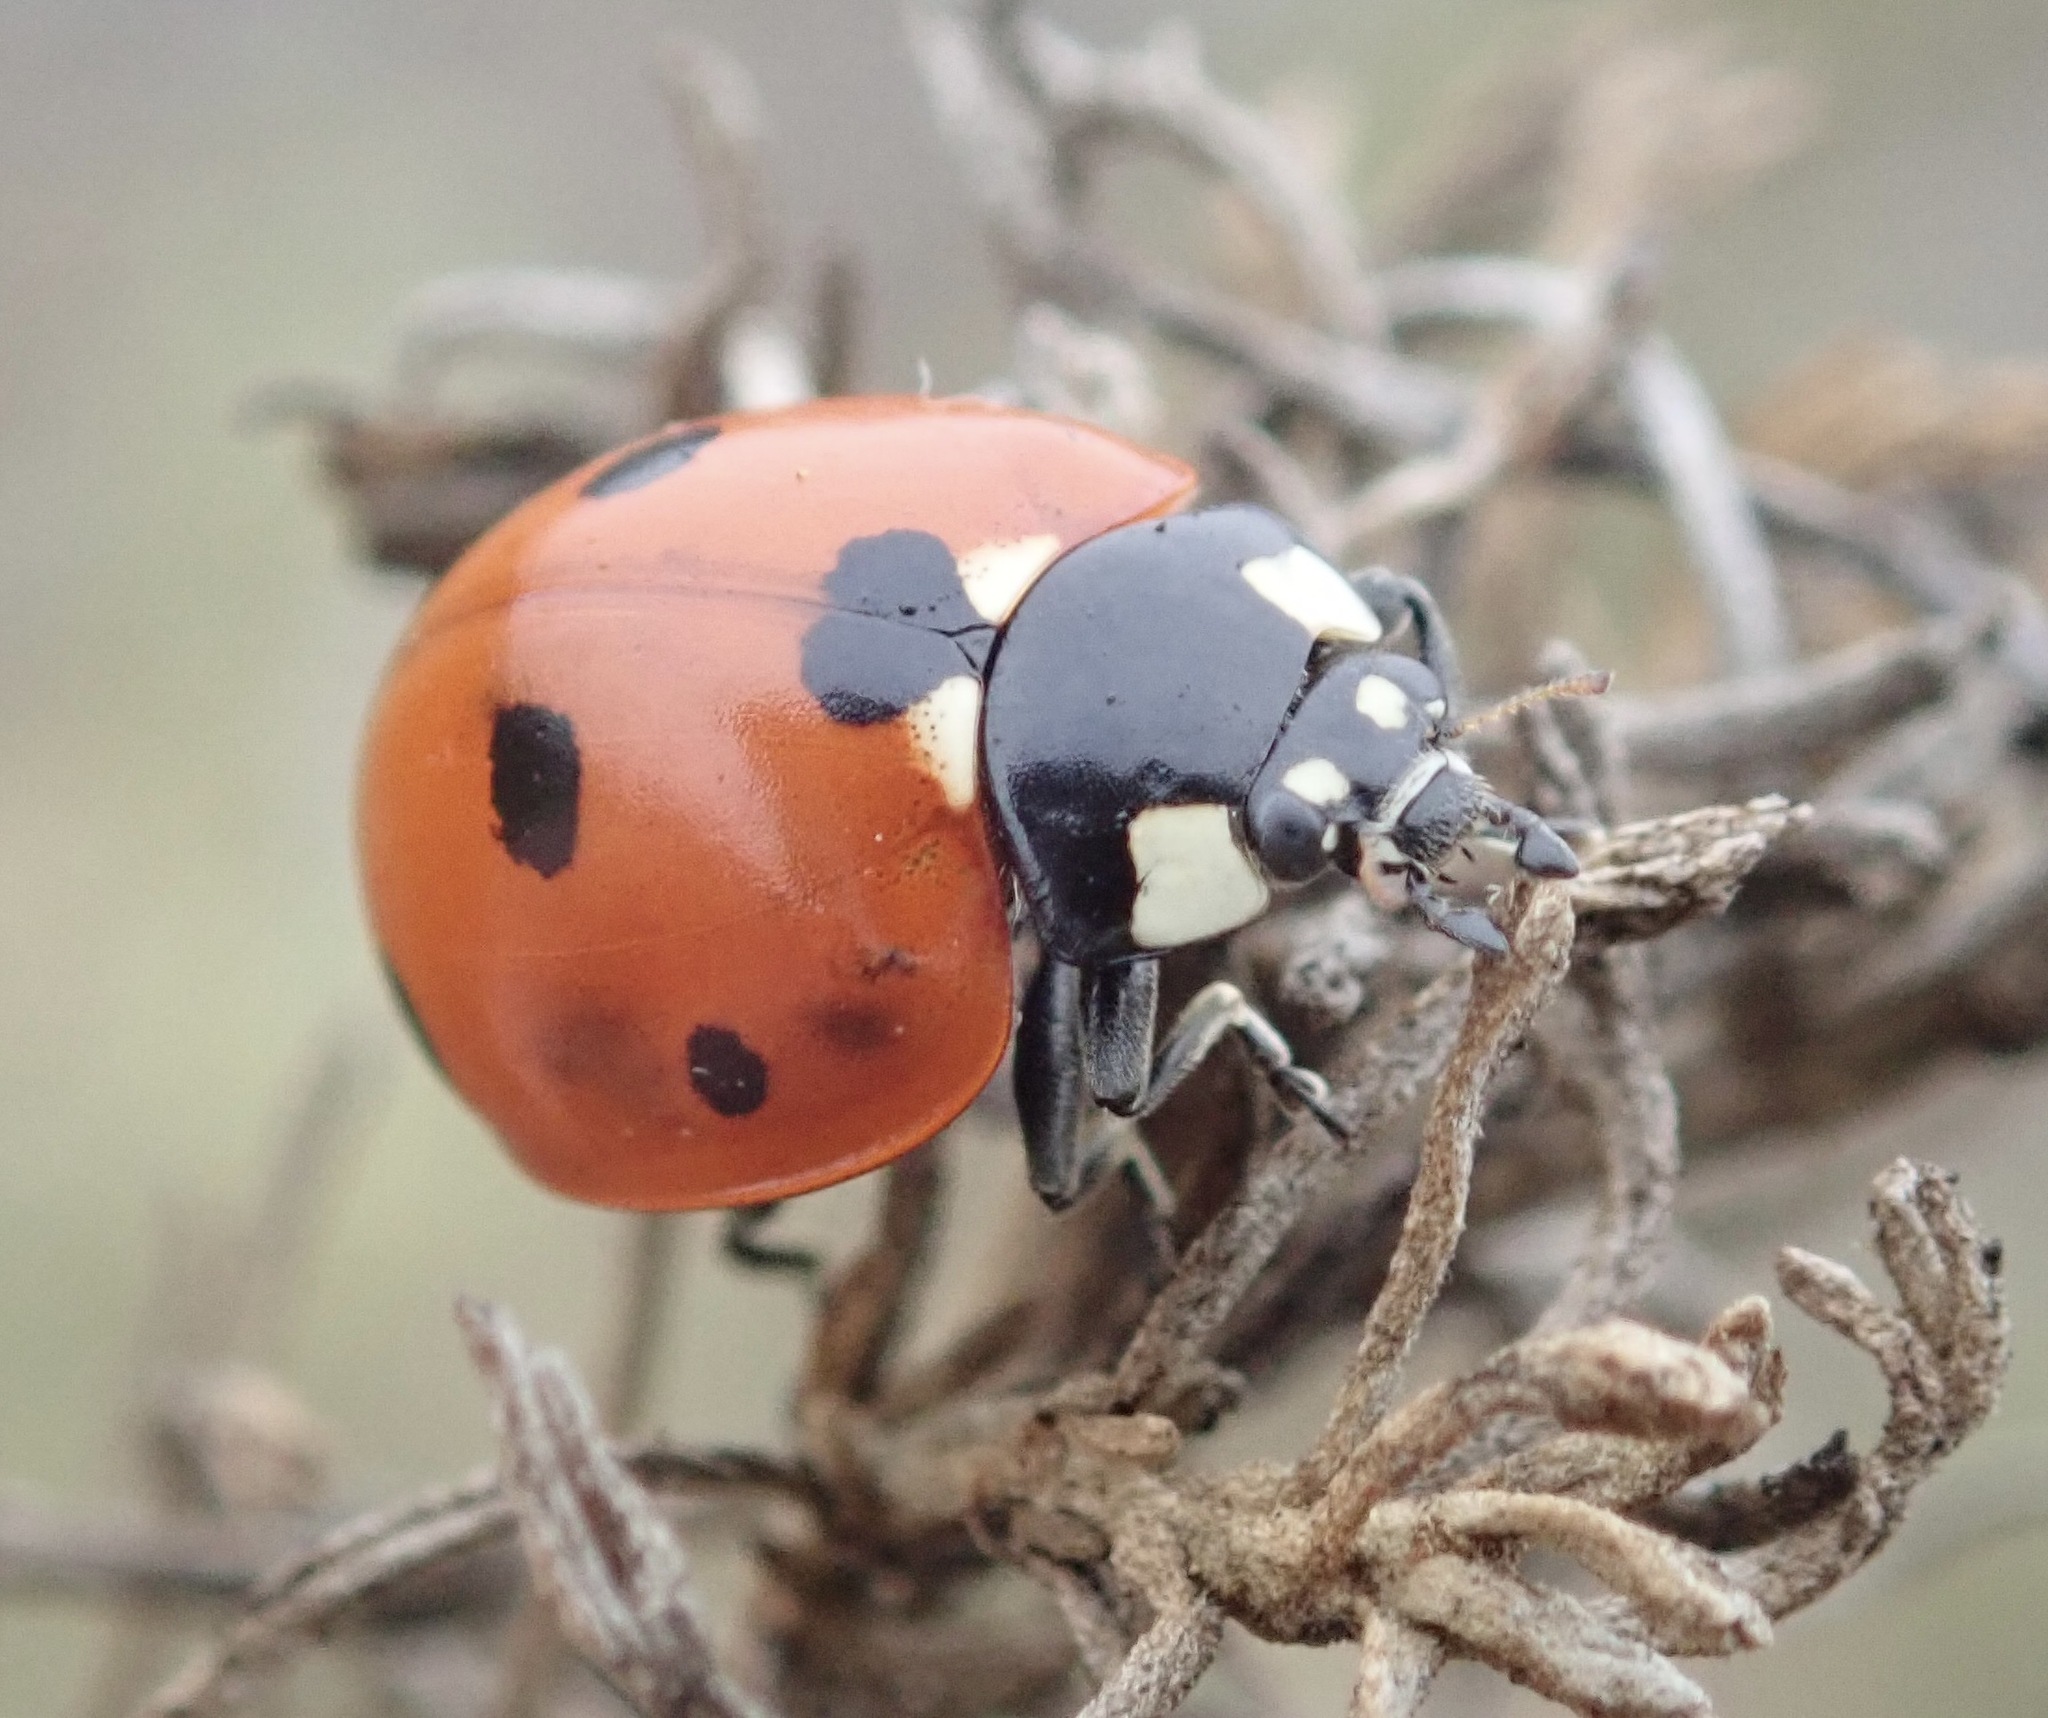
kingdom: Animalia
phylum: Arthropoda
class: Insecta
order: Coleoptera
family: Coccinellidae
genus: Coccinella
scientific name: Coccinella septempunctata
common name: Sevenspotted lady beetle
